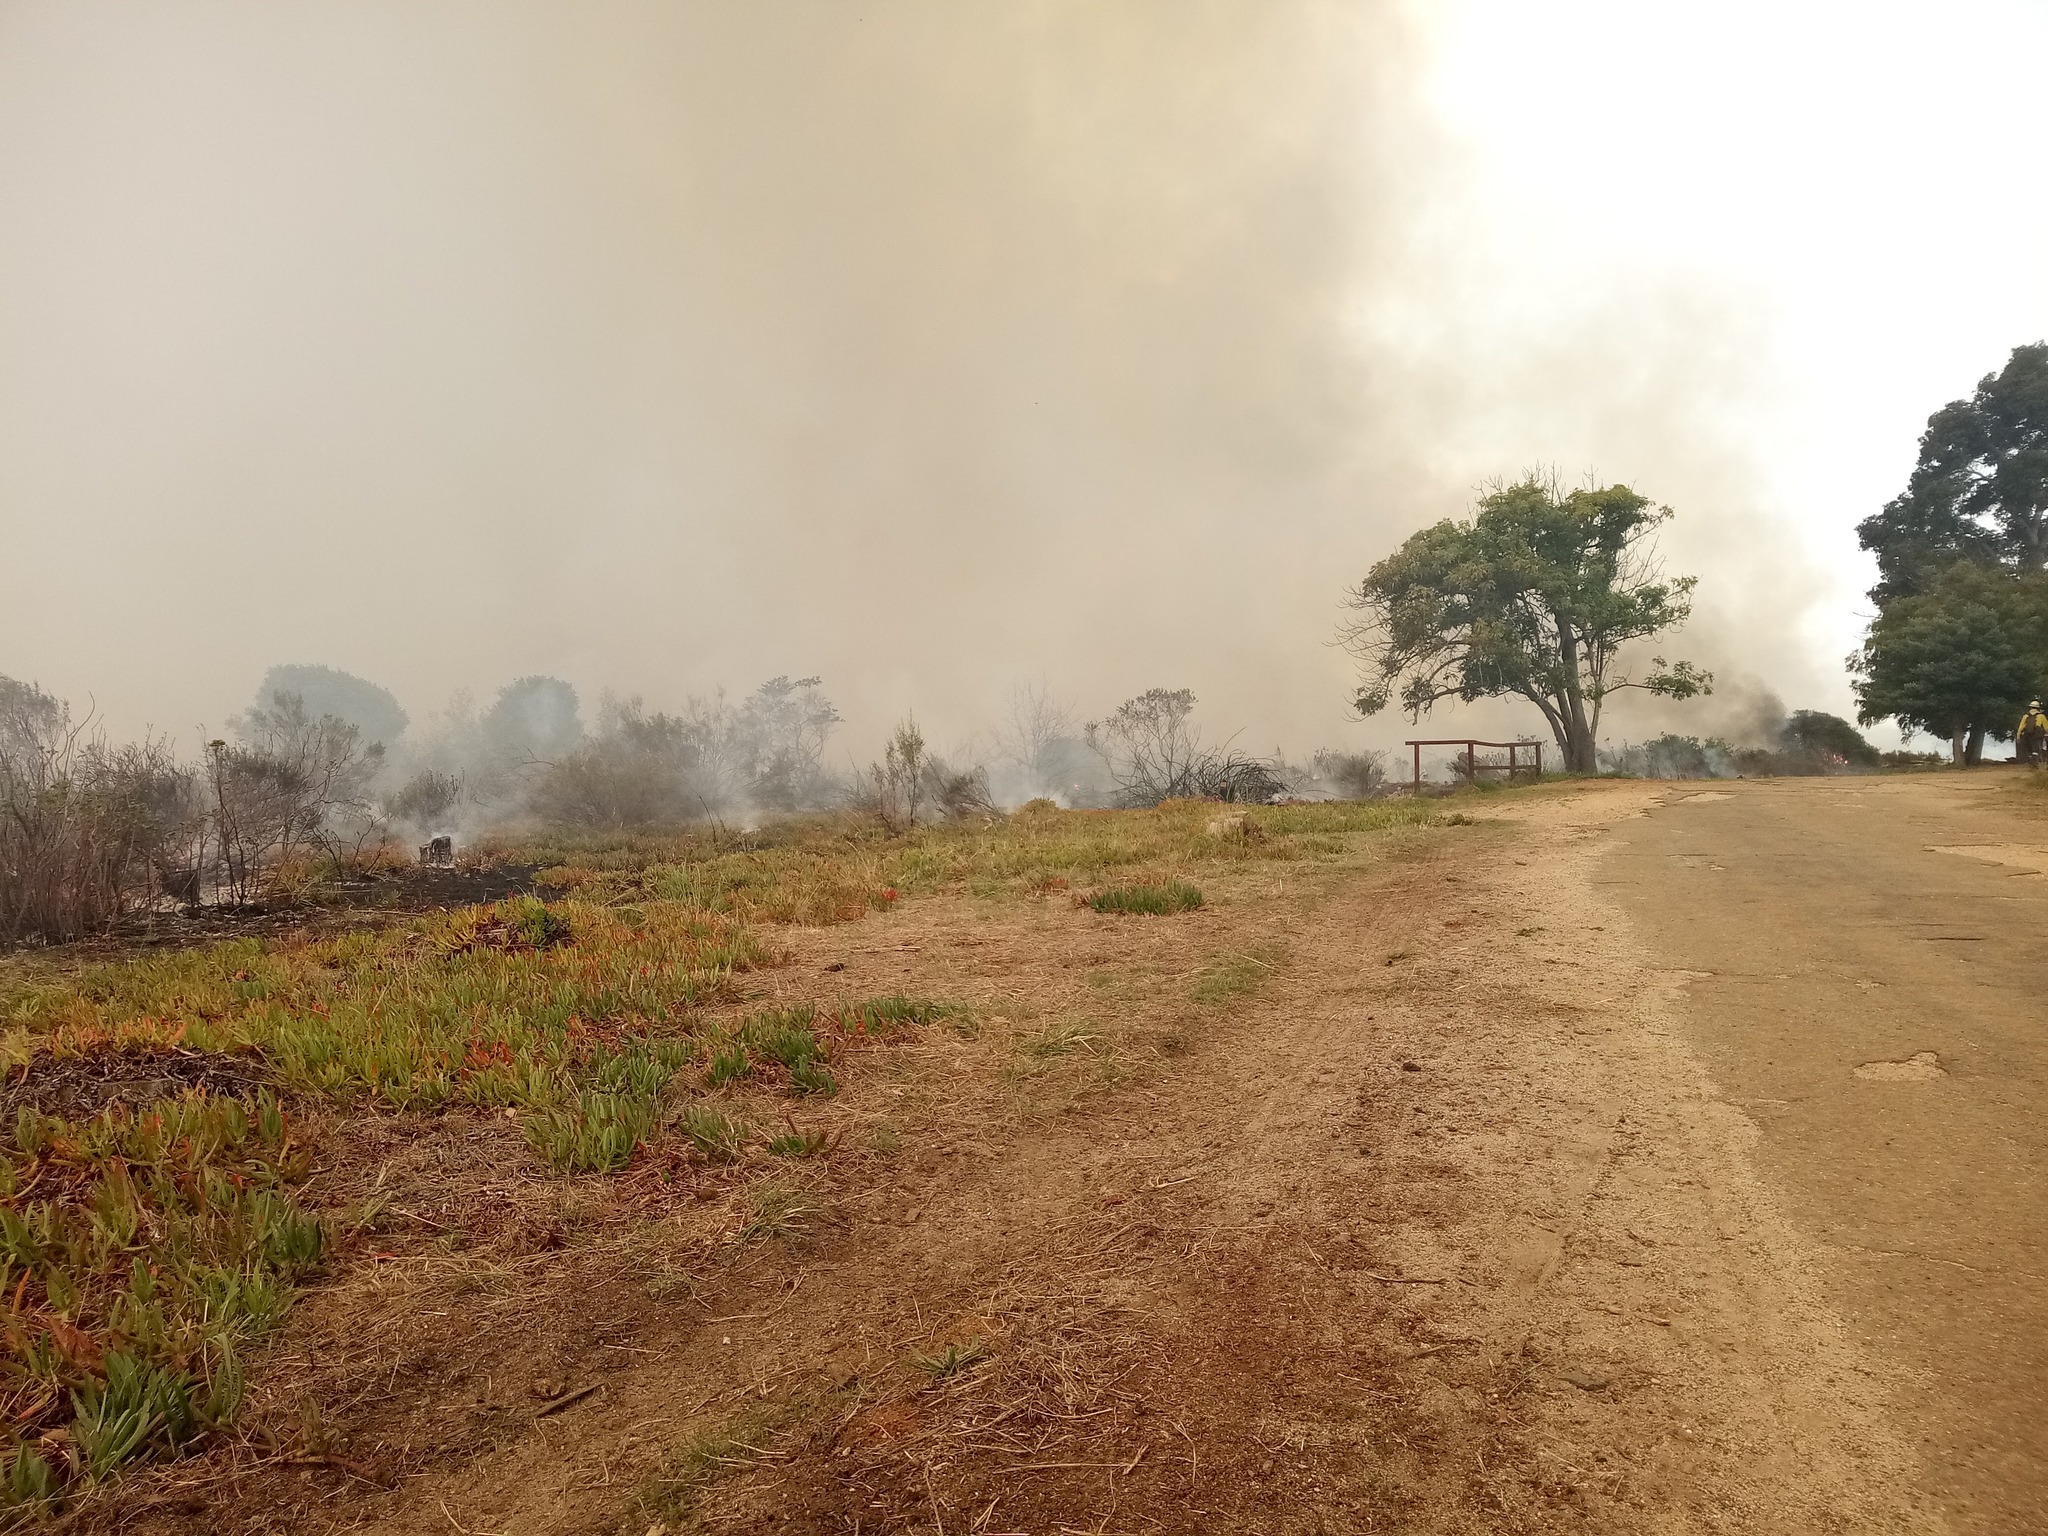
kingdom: Plantae
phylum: Tracheophyta
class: Magnoliopsida
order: Caryophyllales
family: Aizoaceae
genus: Carpobrotus
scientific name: Carpobrotus edulis
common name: Hottentot-fig
